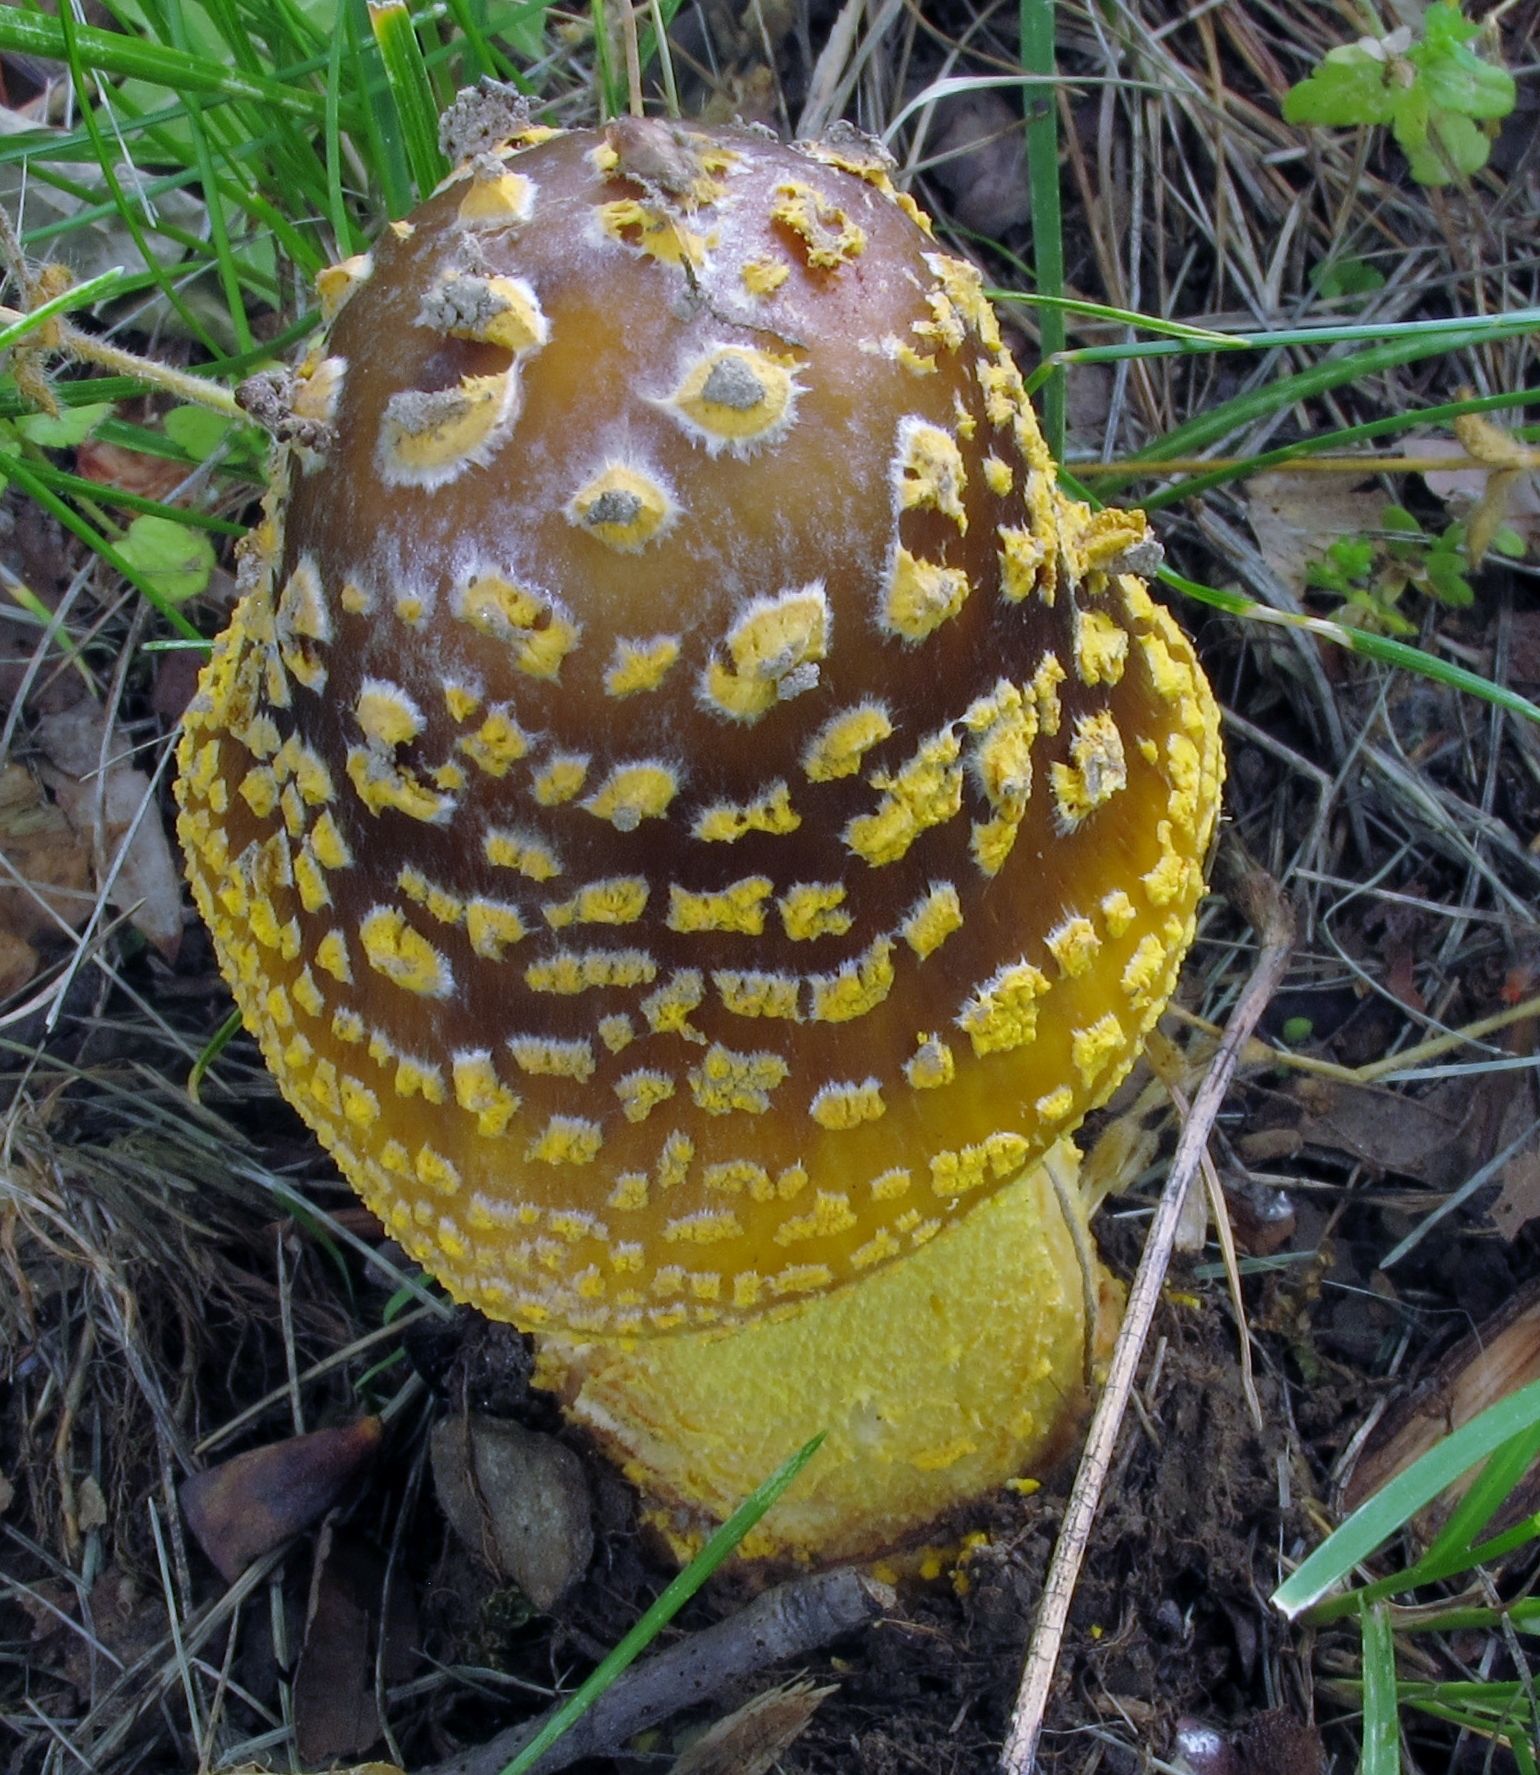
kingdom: Fungi
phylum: Basidiomycota
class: Agaricomycetes
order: Agaricales
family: Amanitaceae
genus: Amanita
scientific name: Amanita flavorubens
